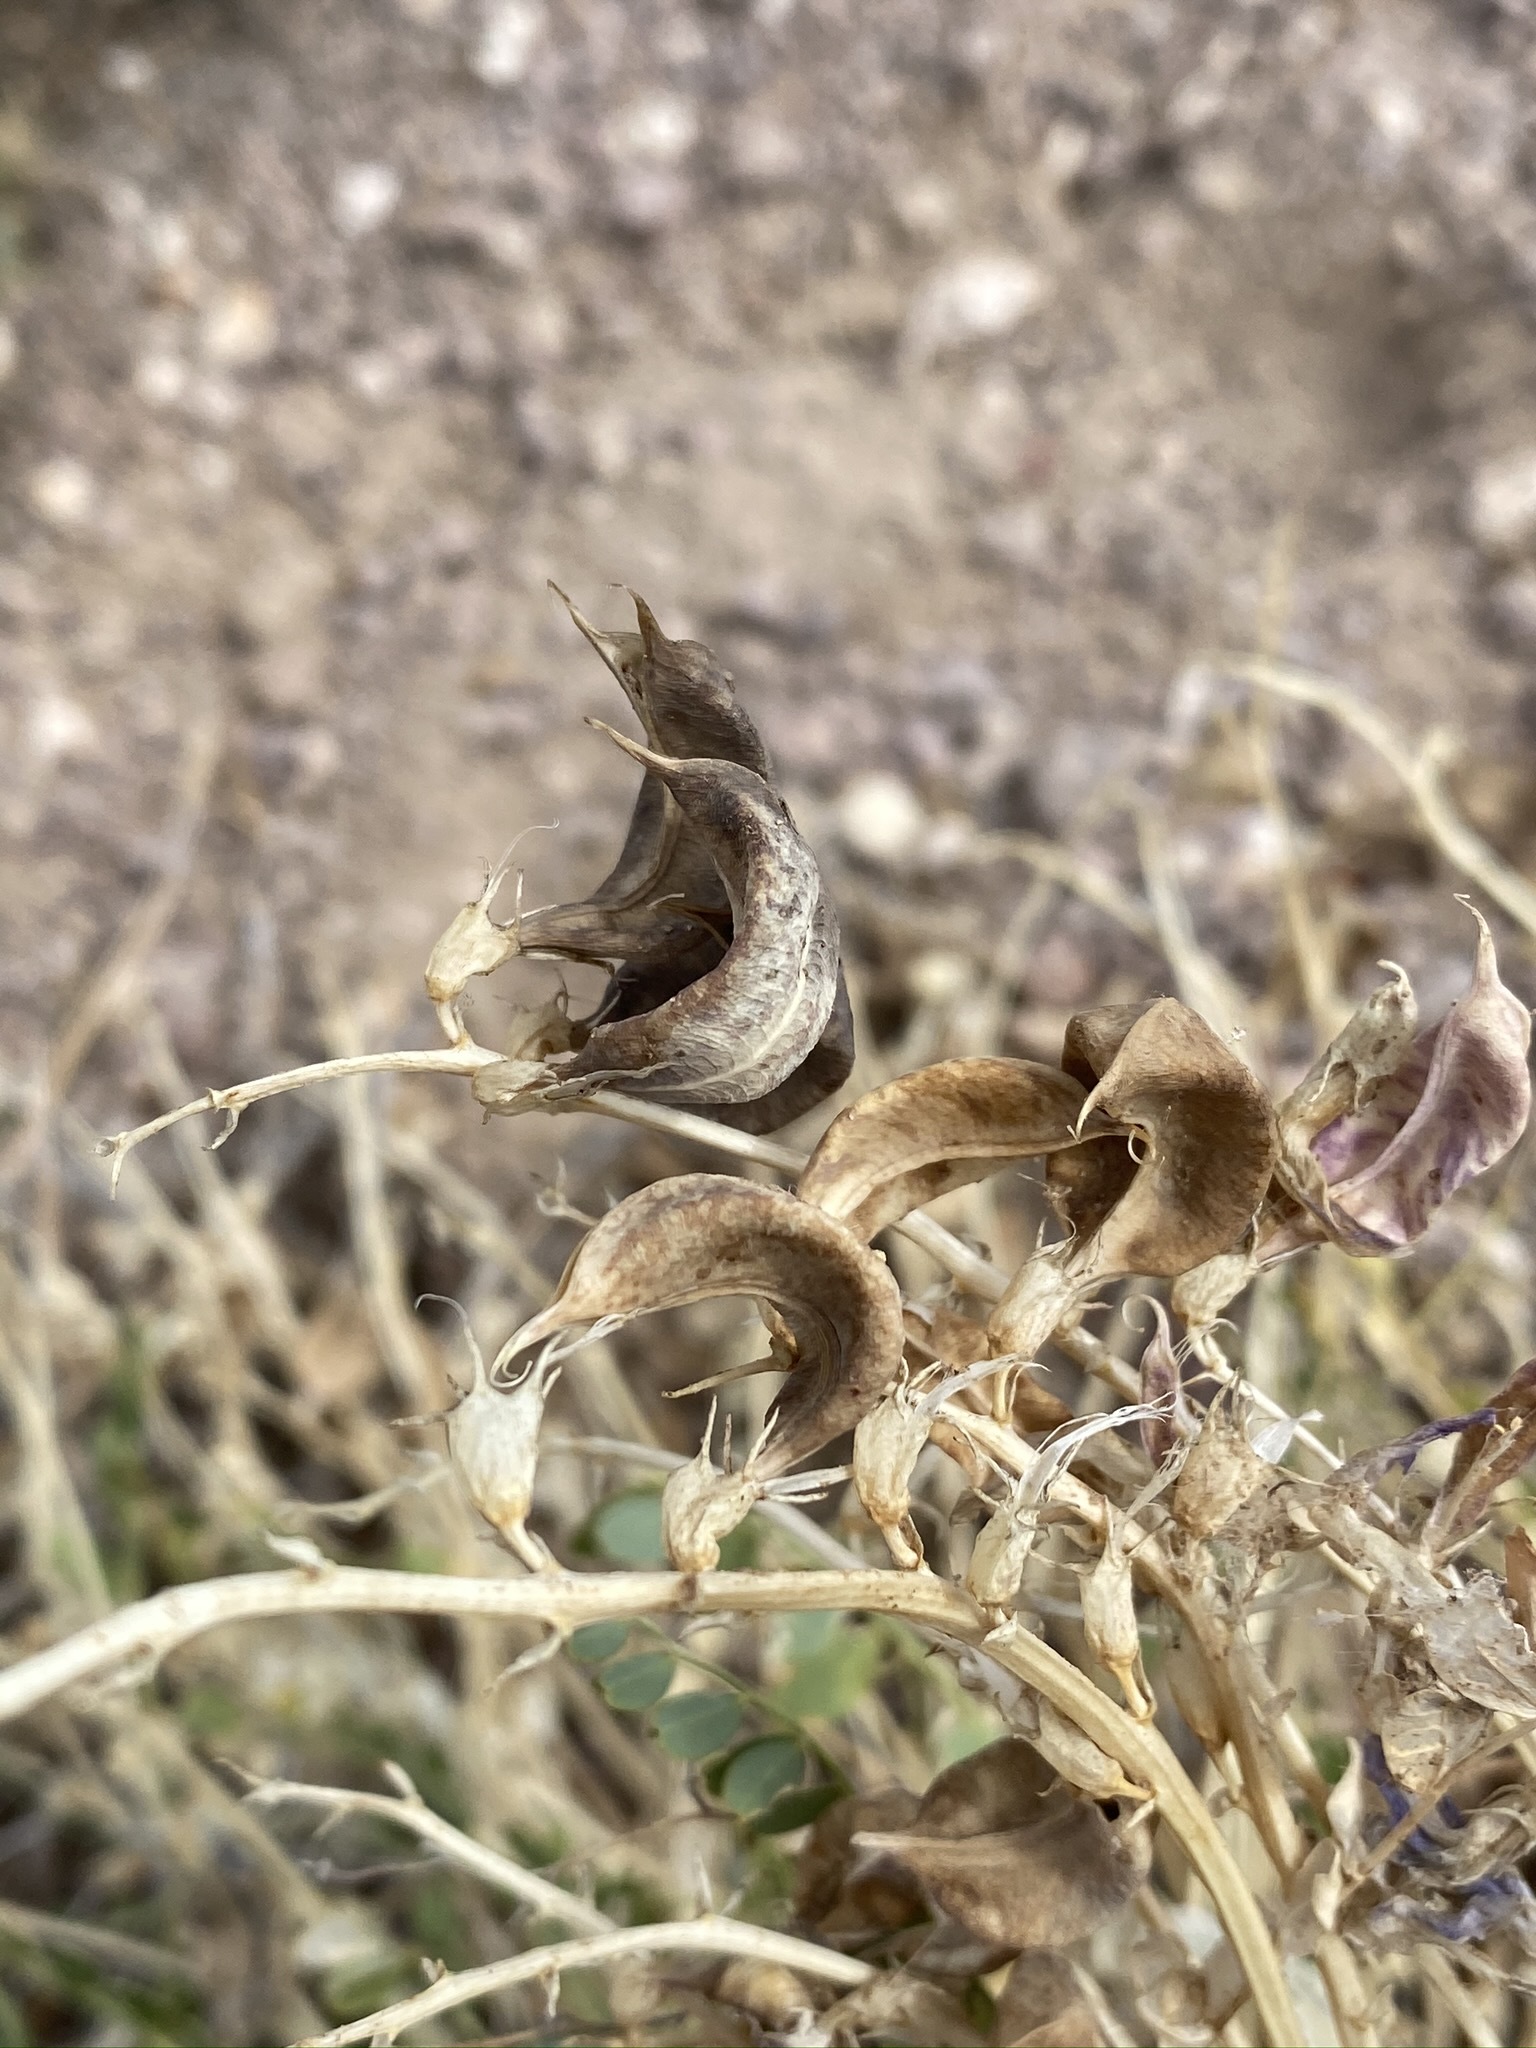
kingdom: Plantae
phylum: Tracheophyta
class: Magnoliopsida
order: Fabales
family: Fabaceae
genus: Astragalus
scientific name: Astragalus beckwithii
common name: Beckwith's milk-vetch
